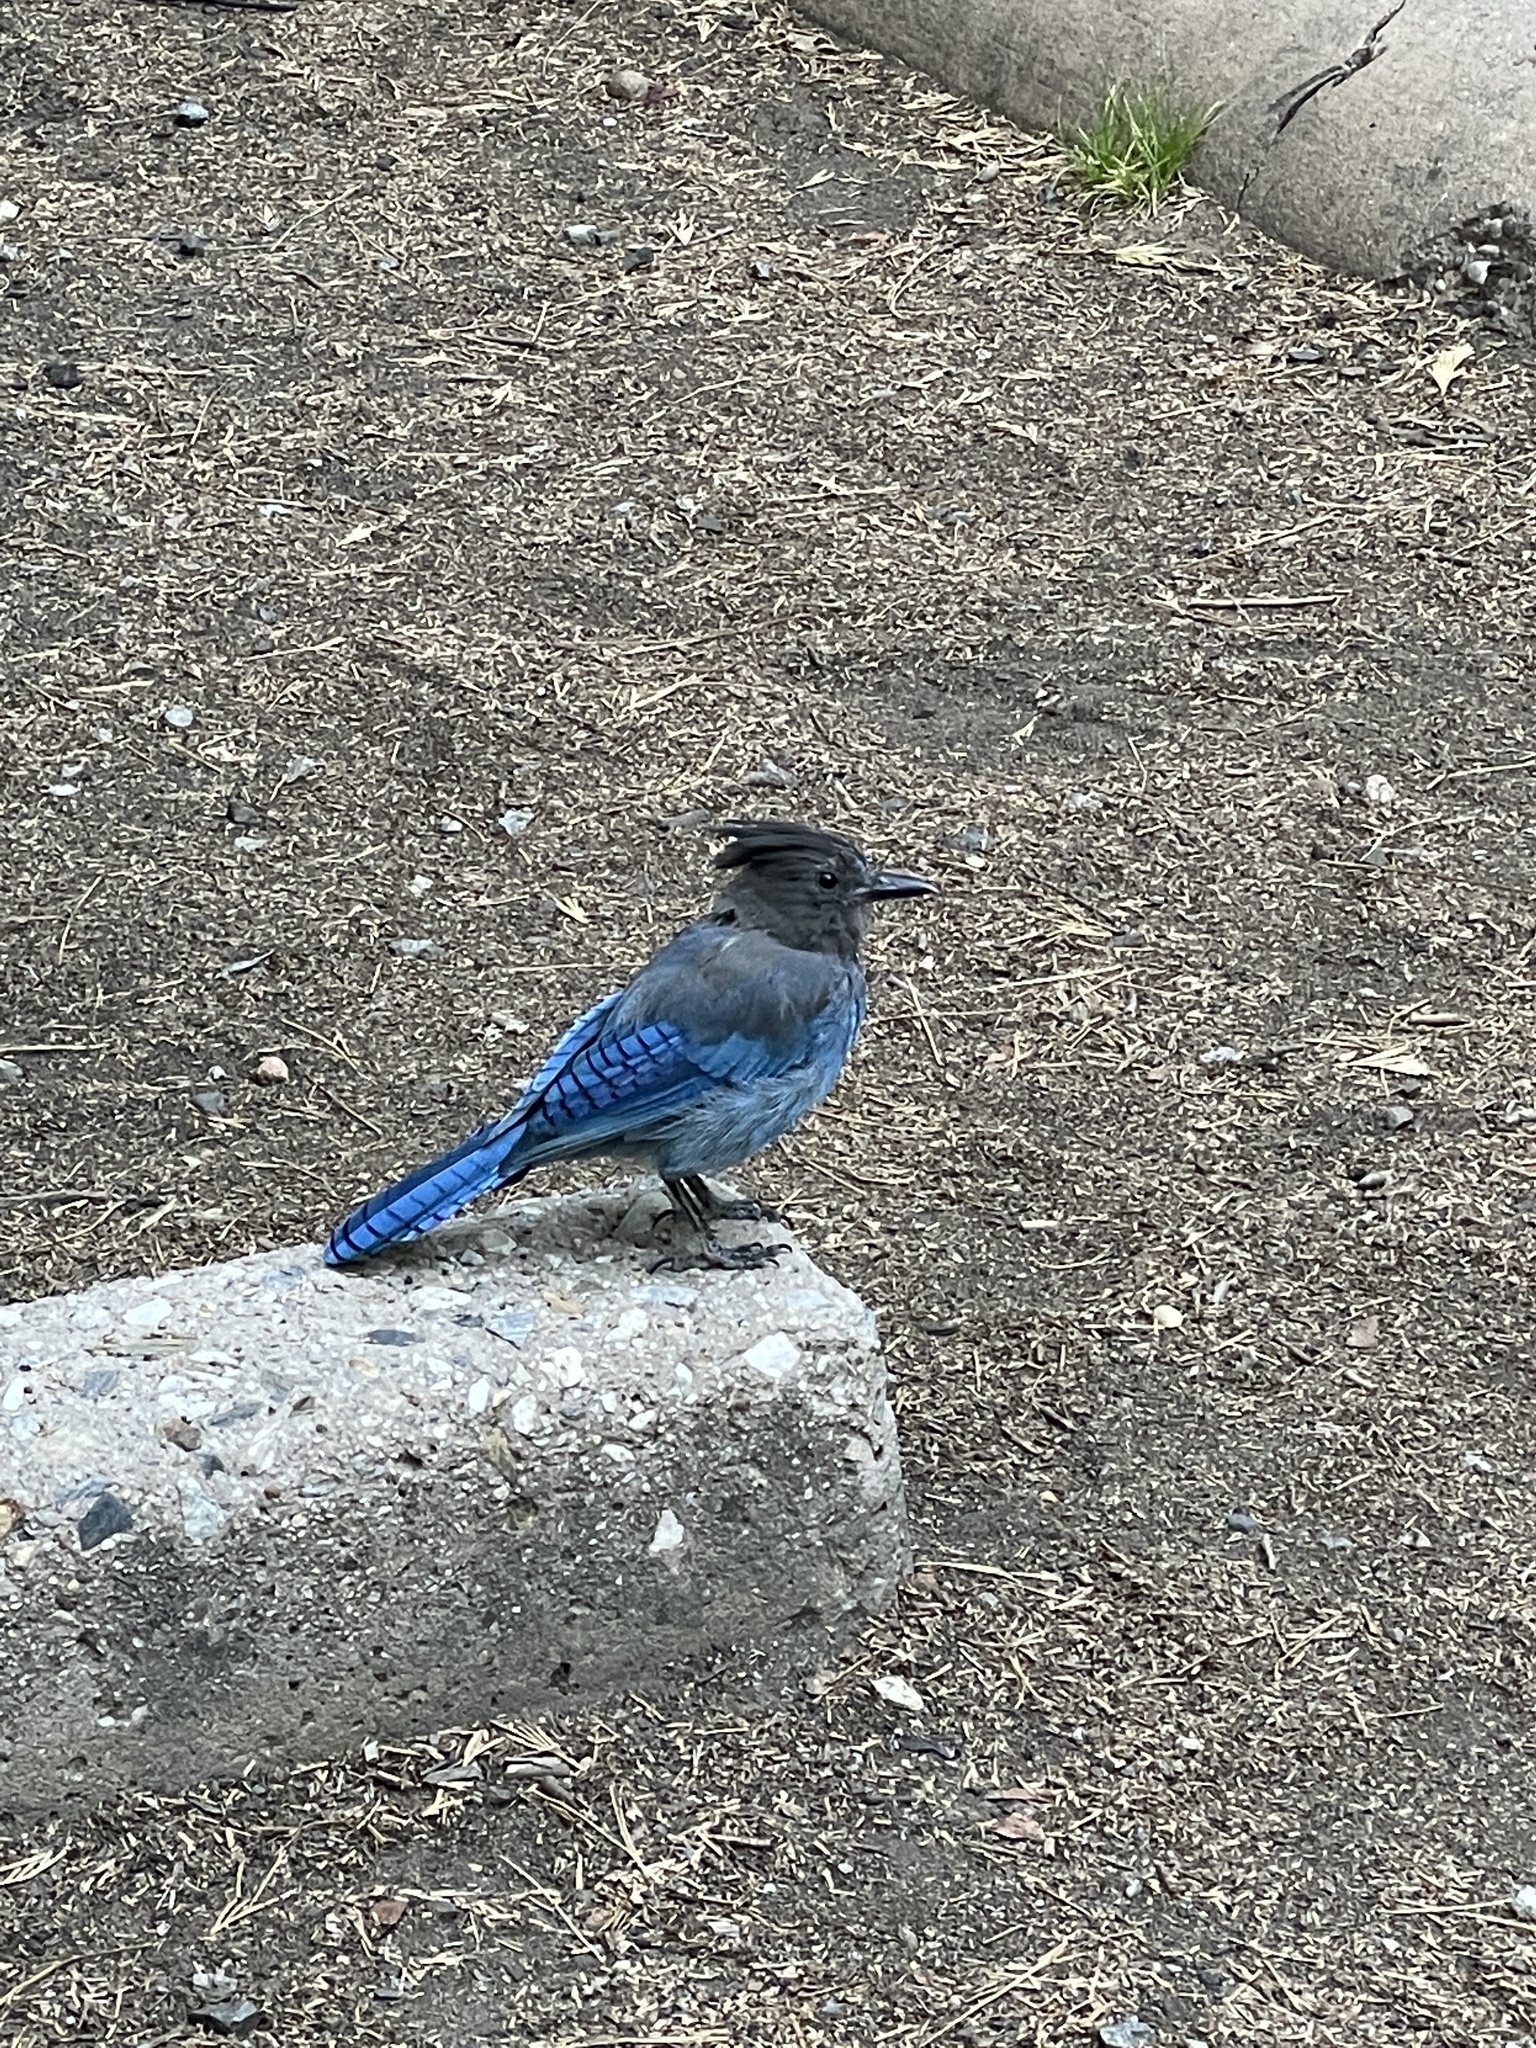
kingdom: Animalia
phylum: Chordata
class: Aves
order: Passeriformes
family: Corvidae
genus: Cyanocitta
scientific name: Cyanocitta stelleri
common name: Steller's jay
